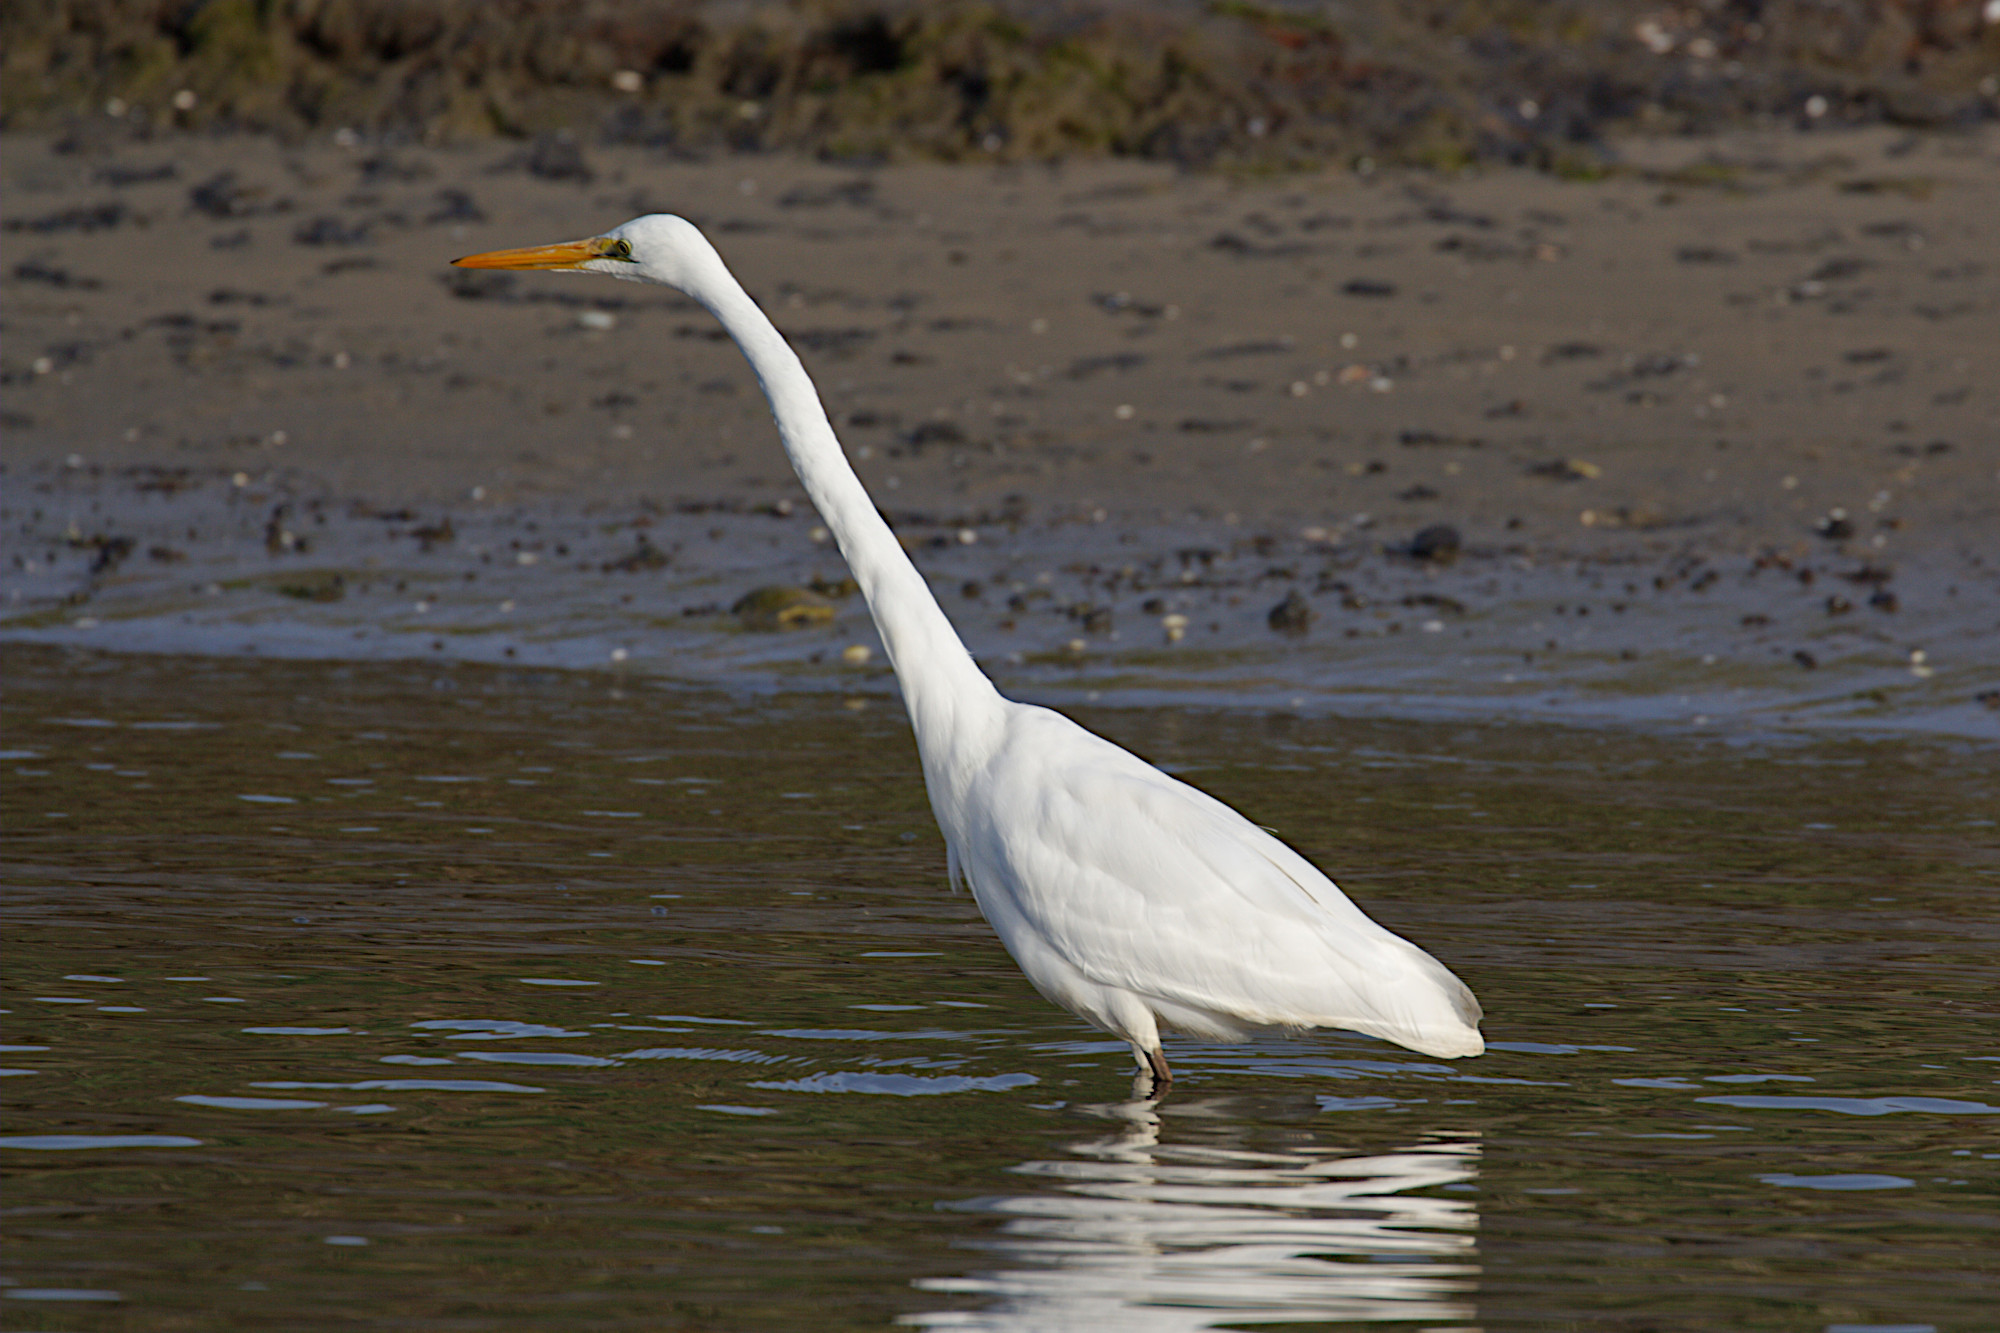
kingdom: Animalia
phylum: Chordata
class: Aves
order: Pelecaniformes
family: Ardeidae
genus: Ardea
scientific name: Ardea alba
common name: Great egret
